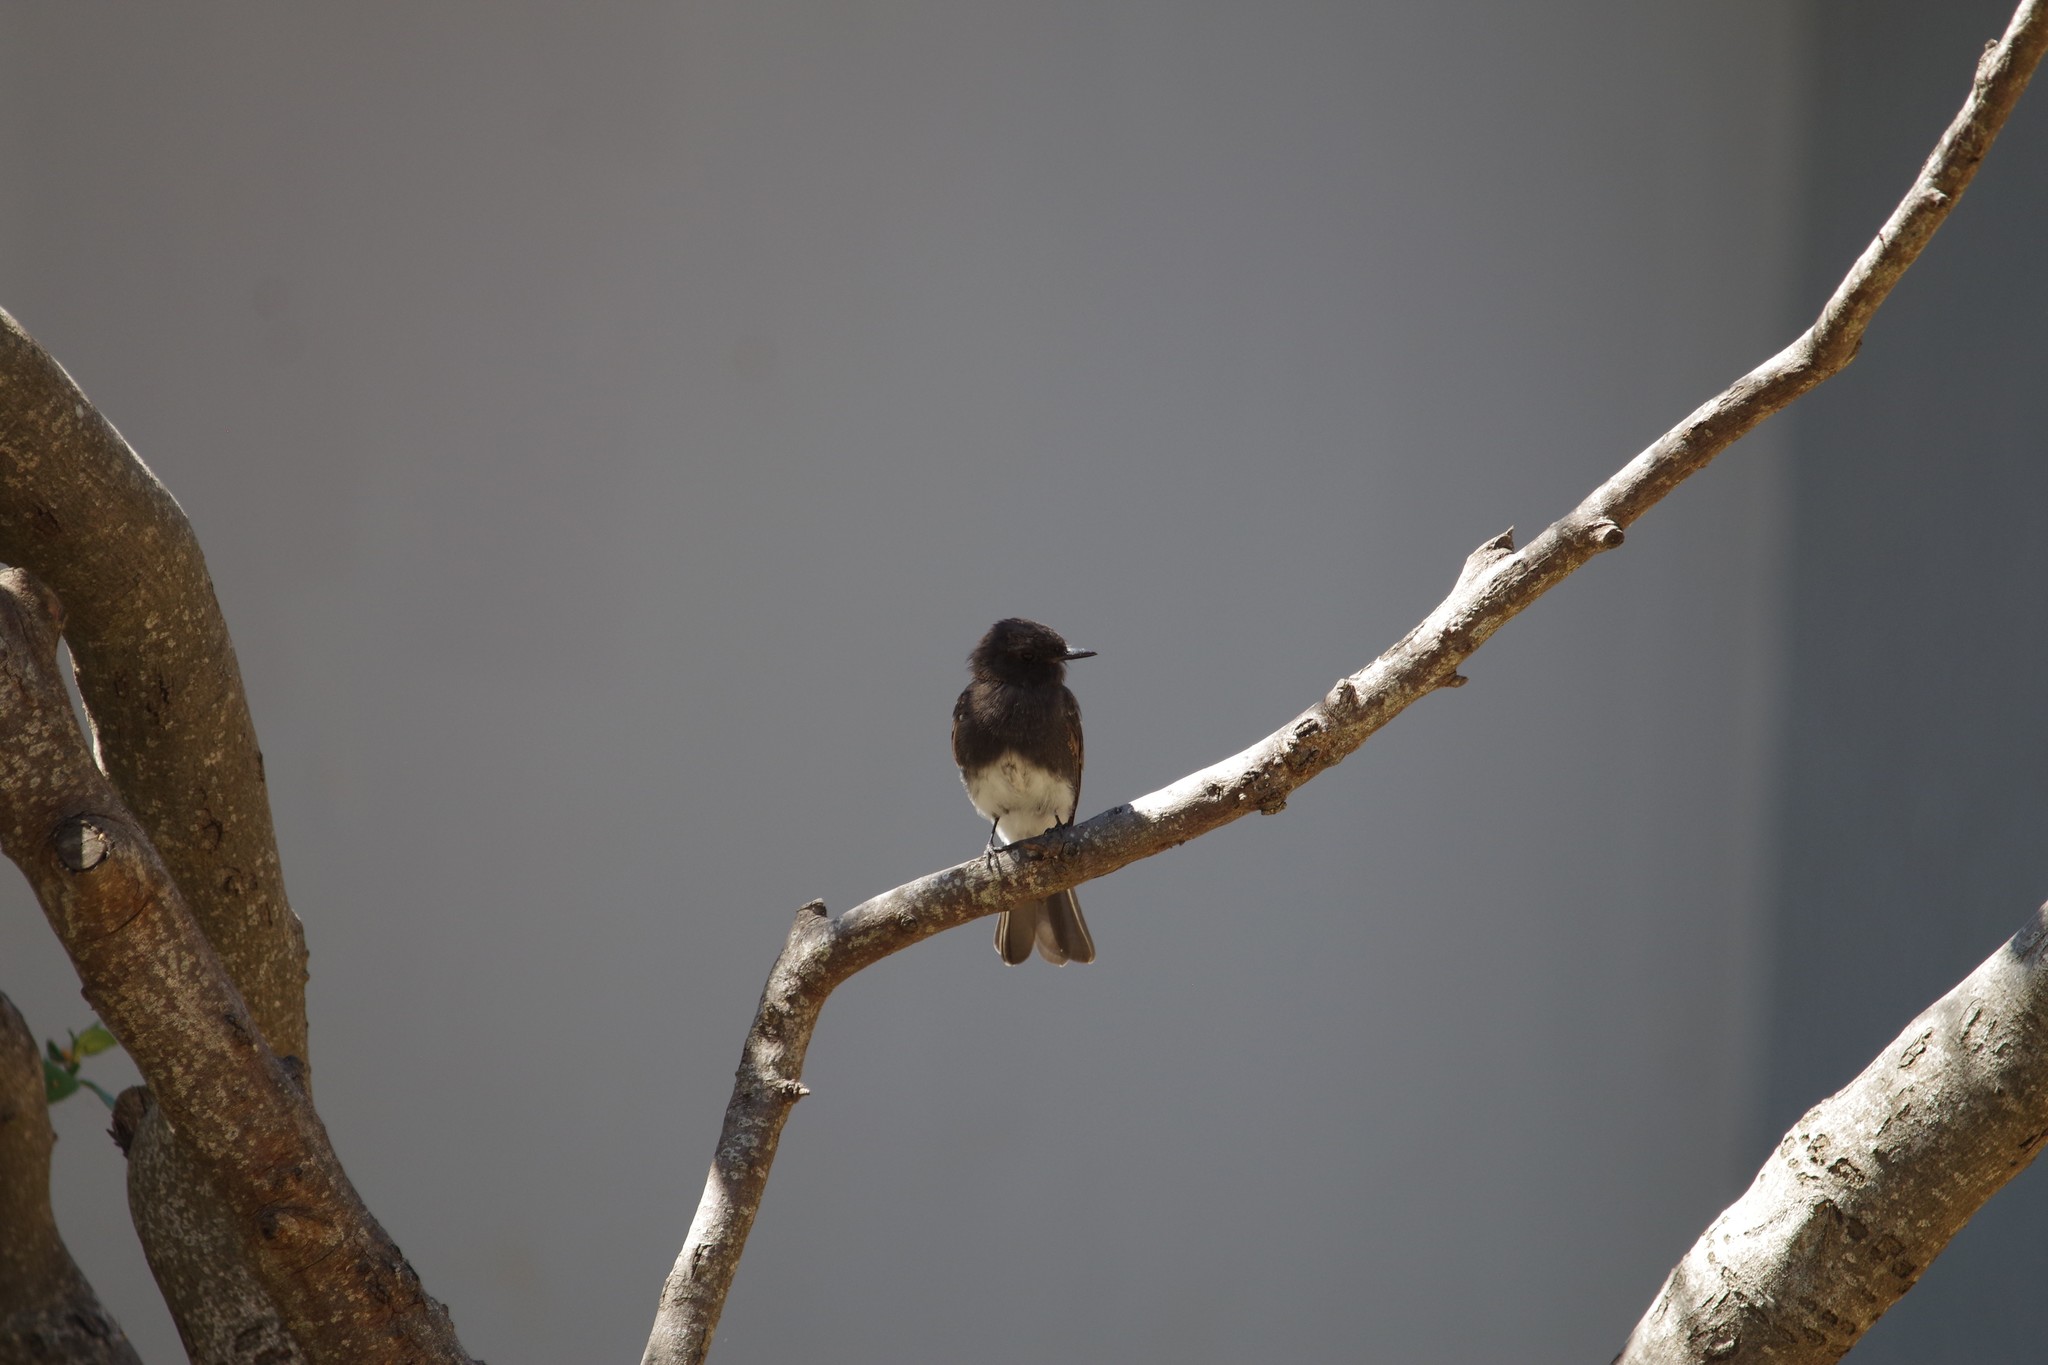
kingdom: Animalia
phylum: Chordata
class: Aves
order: Passeriformes
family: Tyrannidae
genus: Sayornis
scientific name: Sayornis nigricans
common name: Black phoebe
